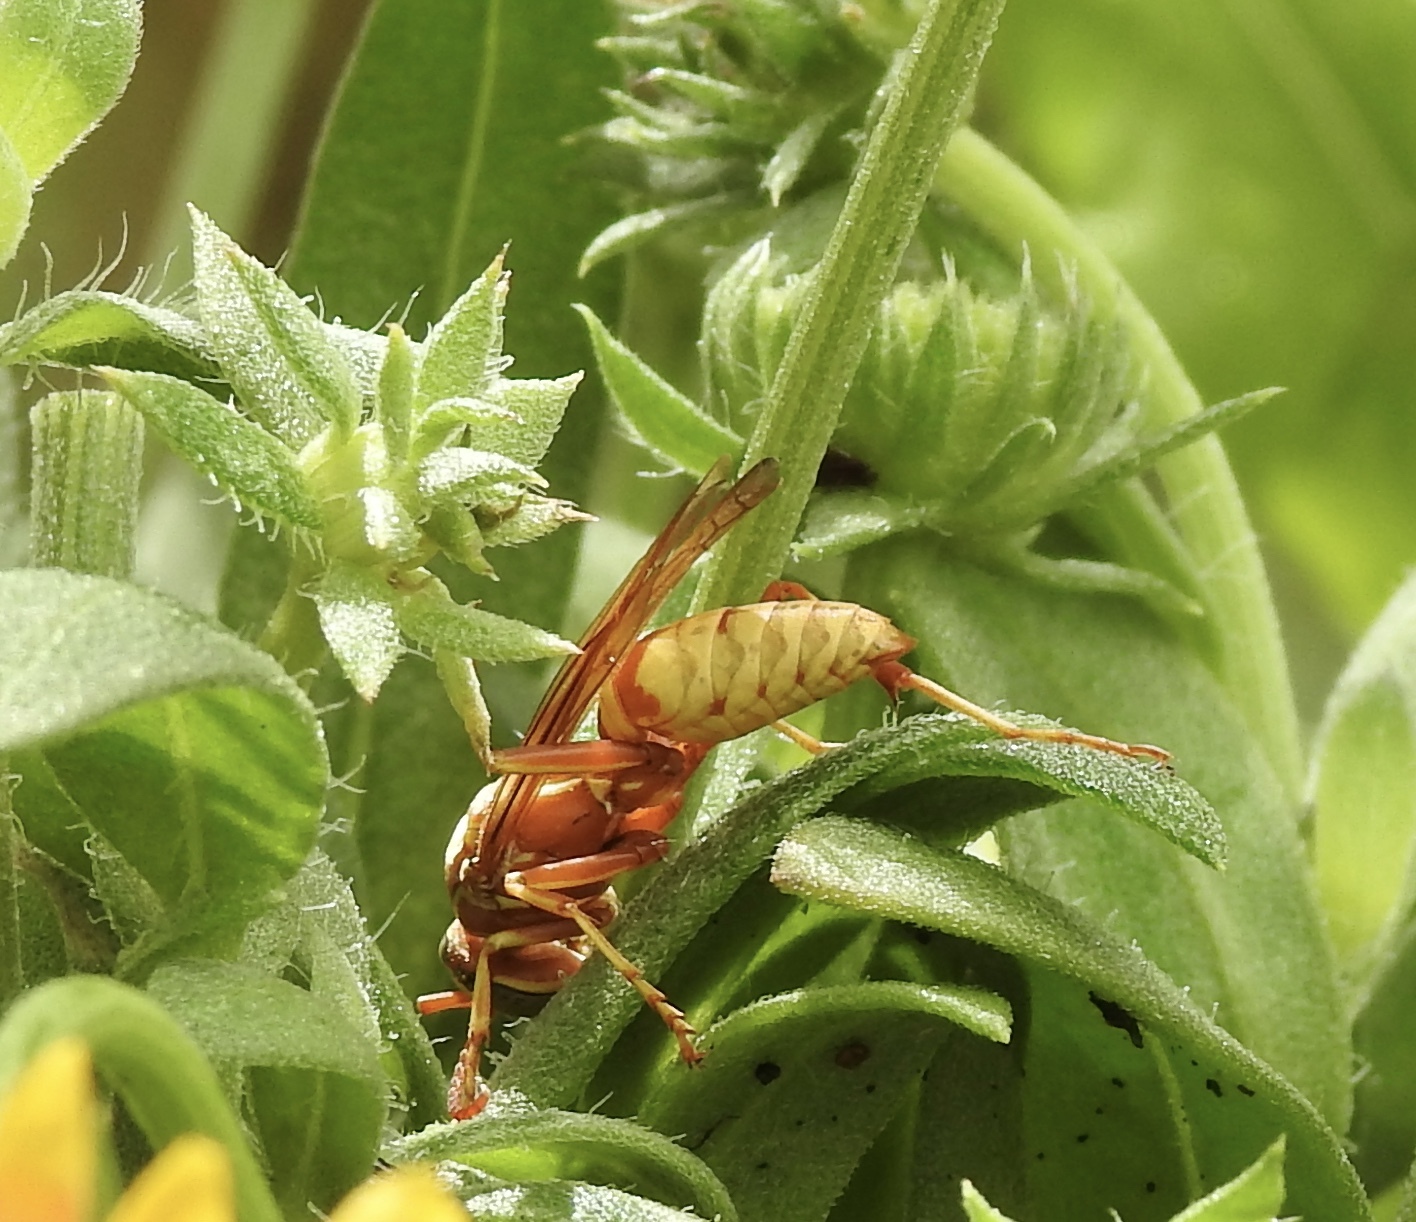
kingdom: Animalia
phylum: Arthropoda
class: Insecta
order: Hymenoptera
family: Eumenidae
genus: Polistes
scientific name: Polistes aurifer
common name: Paper wasp
